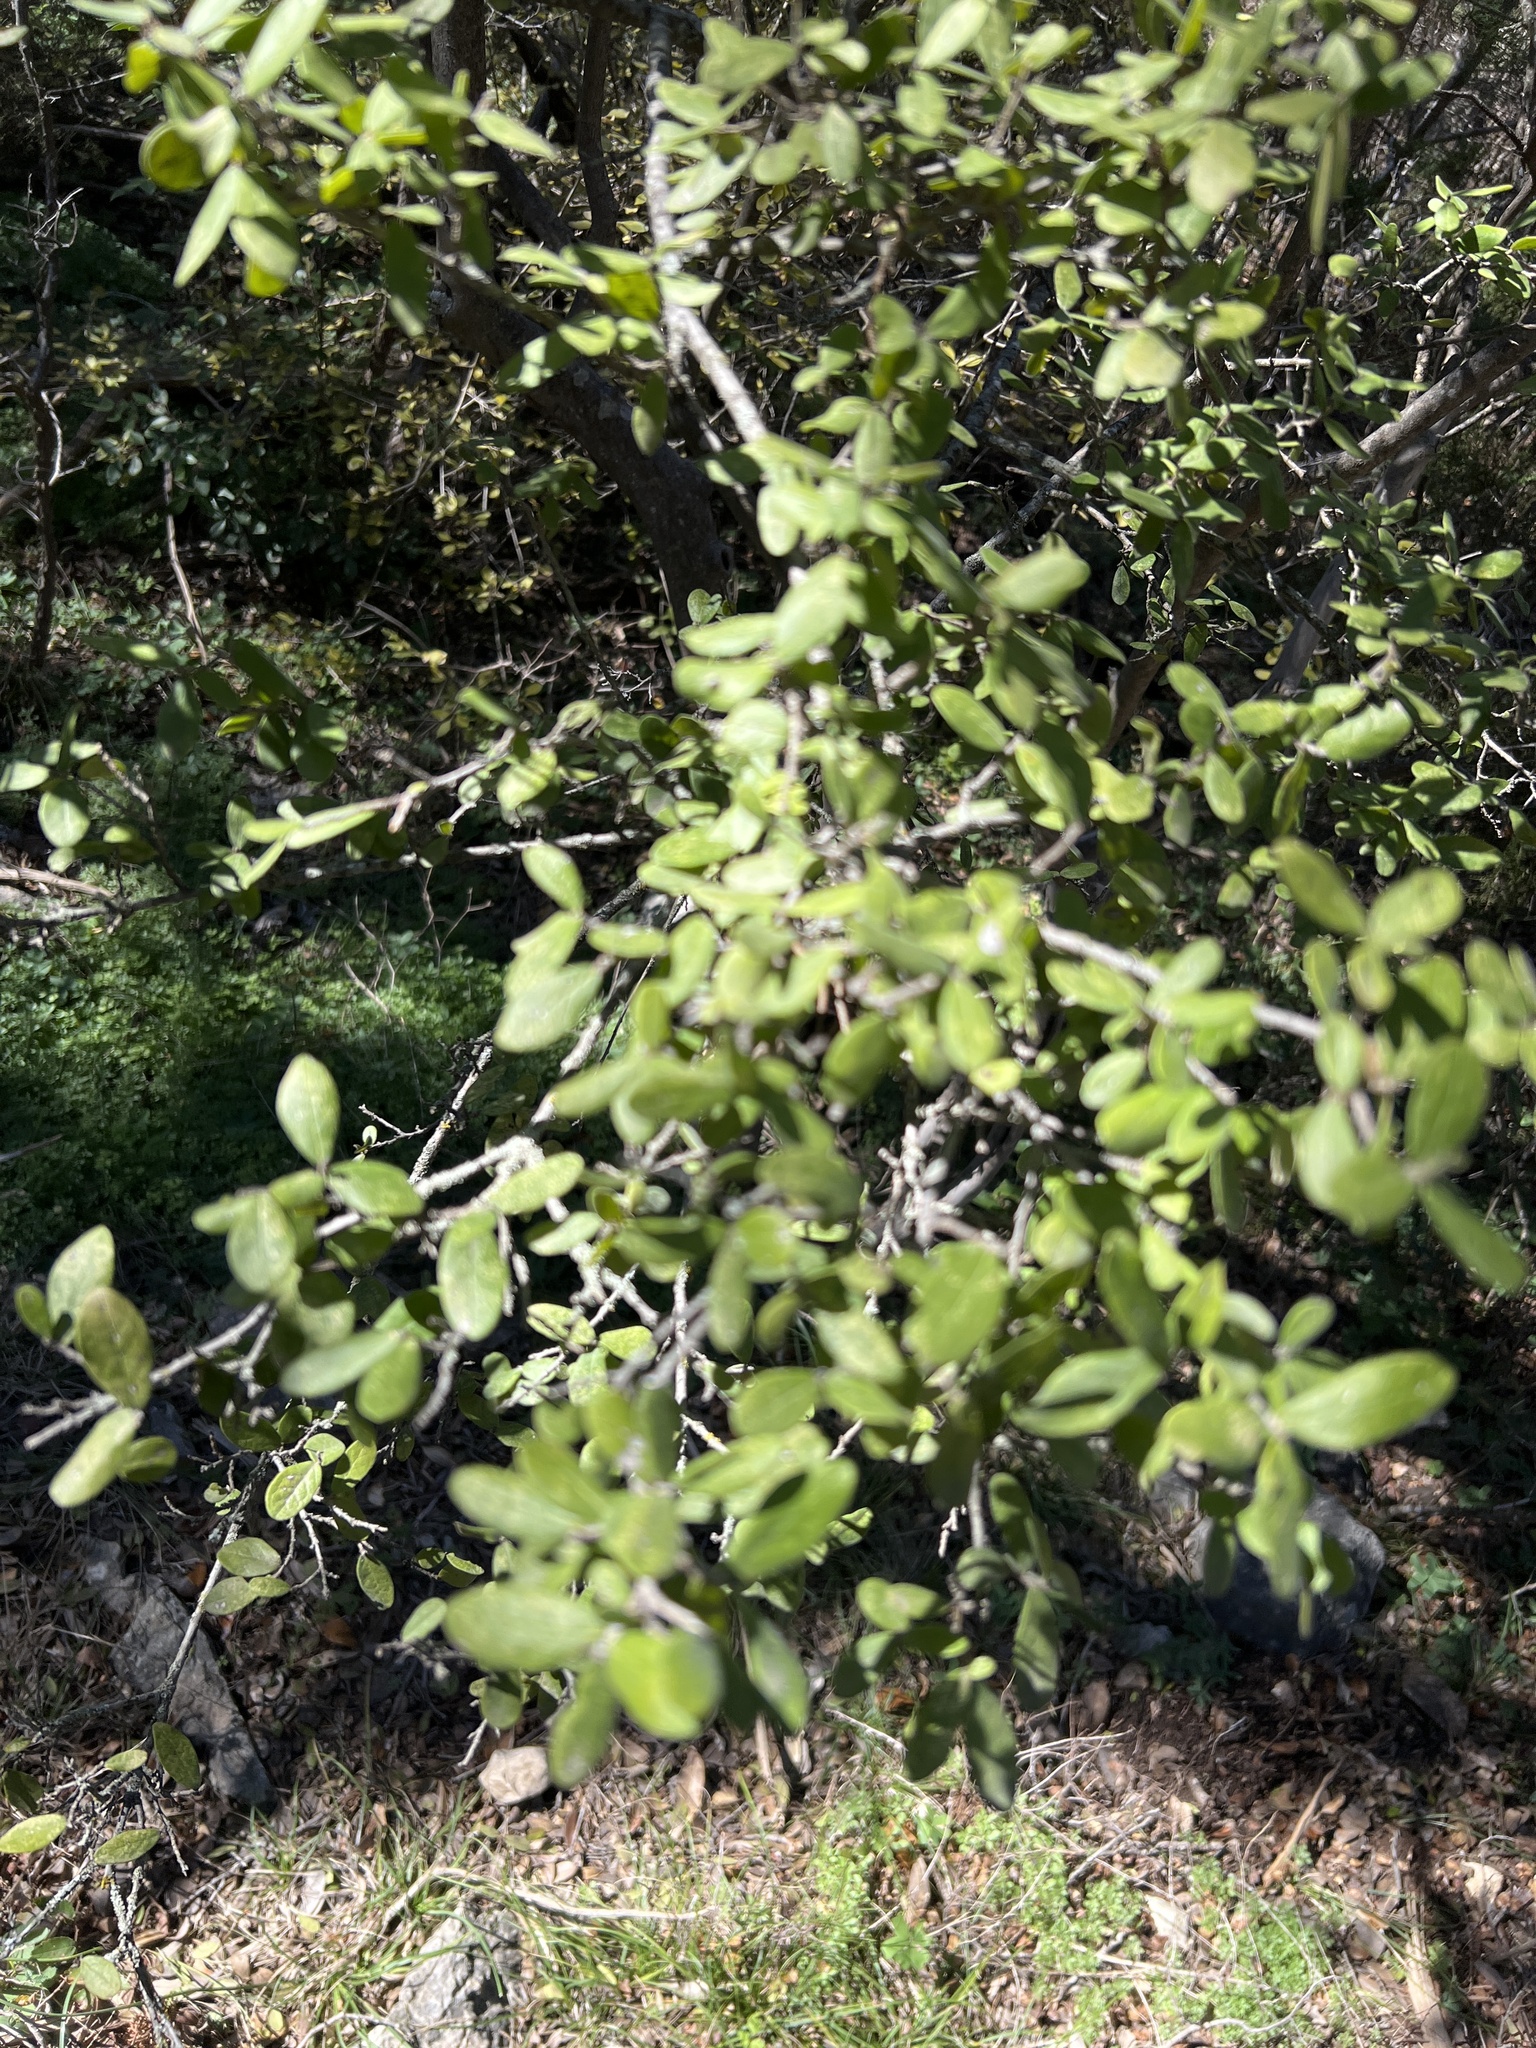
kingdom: Plantae
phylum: Tracheophyta
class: Magnoliopsida
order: Ericales
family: Ebenaceae
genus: Diospyros
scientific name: Diospyros texana
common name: Texas persimmon
